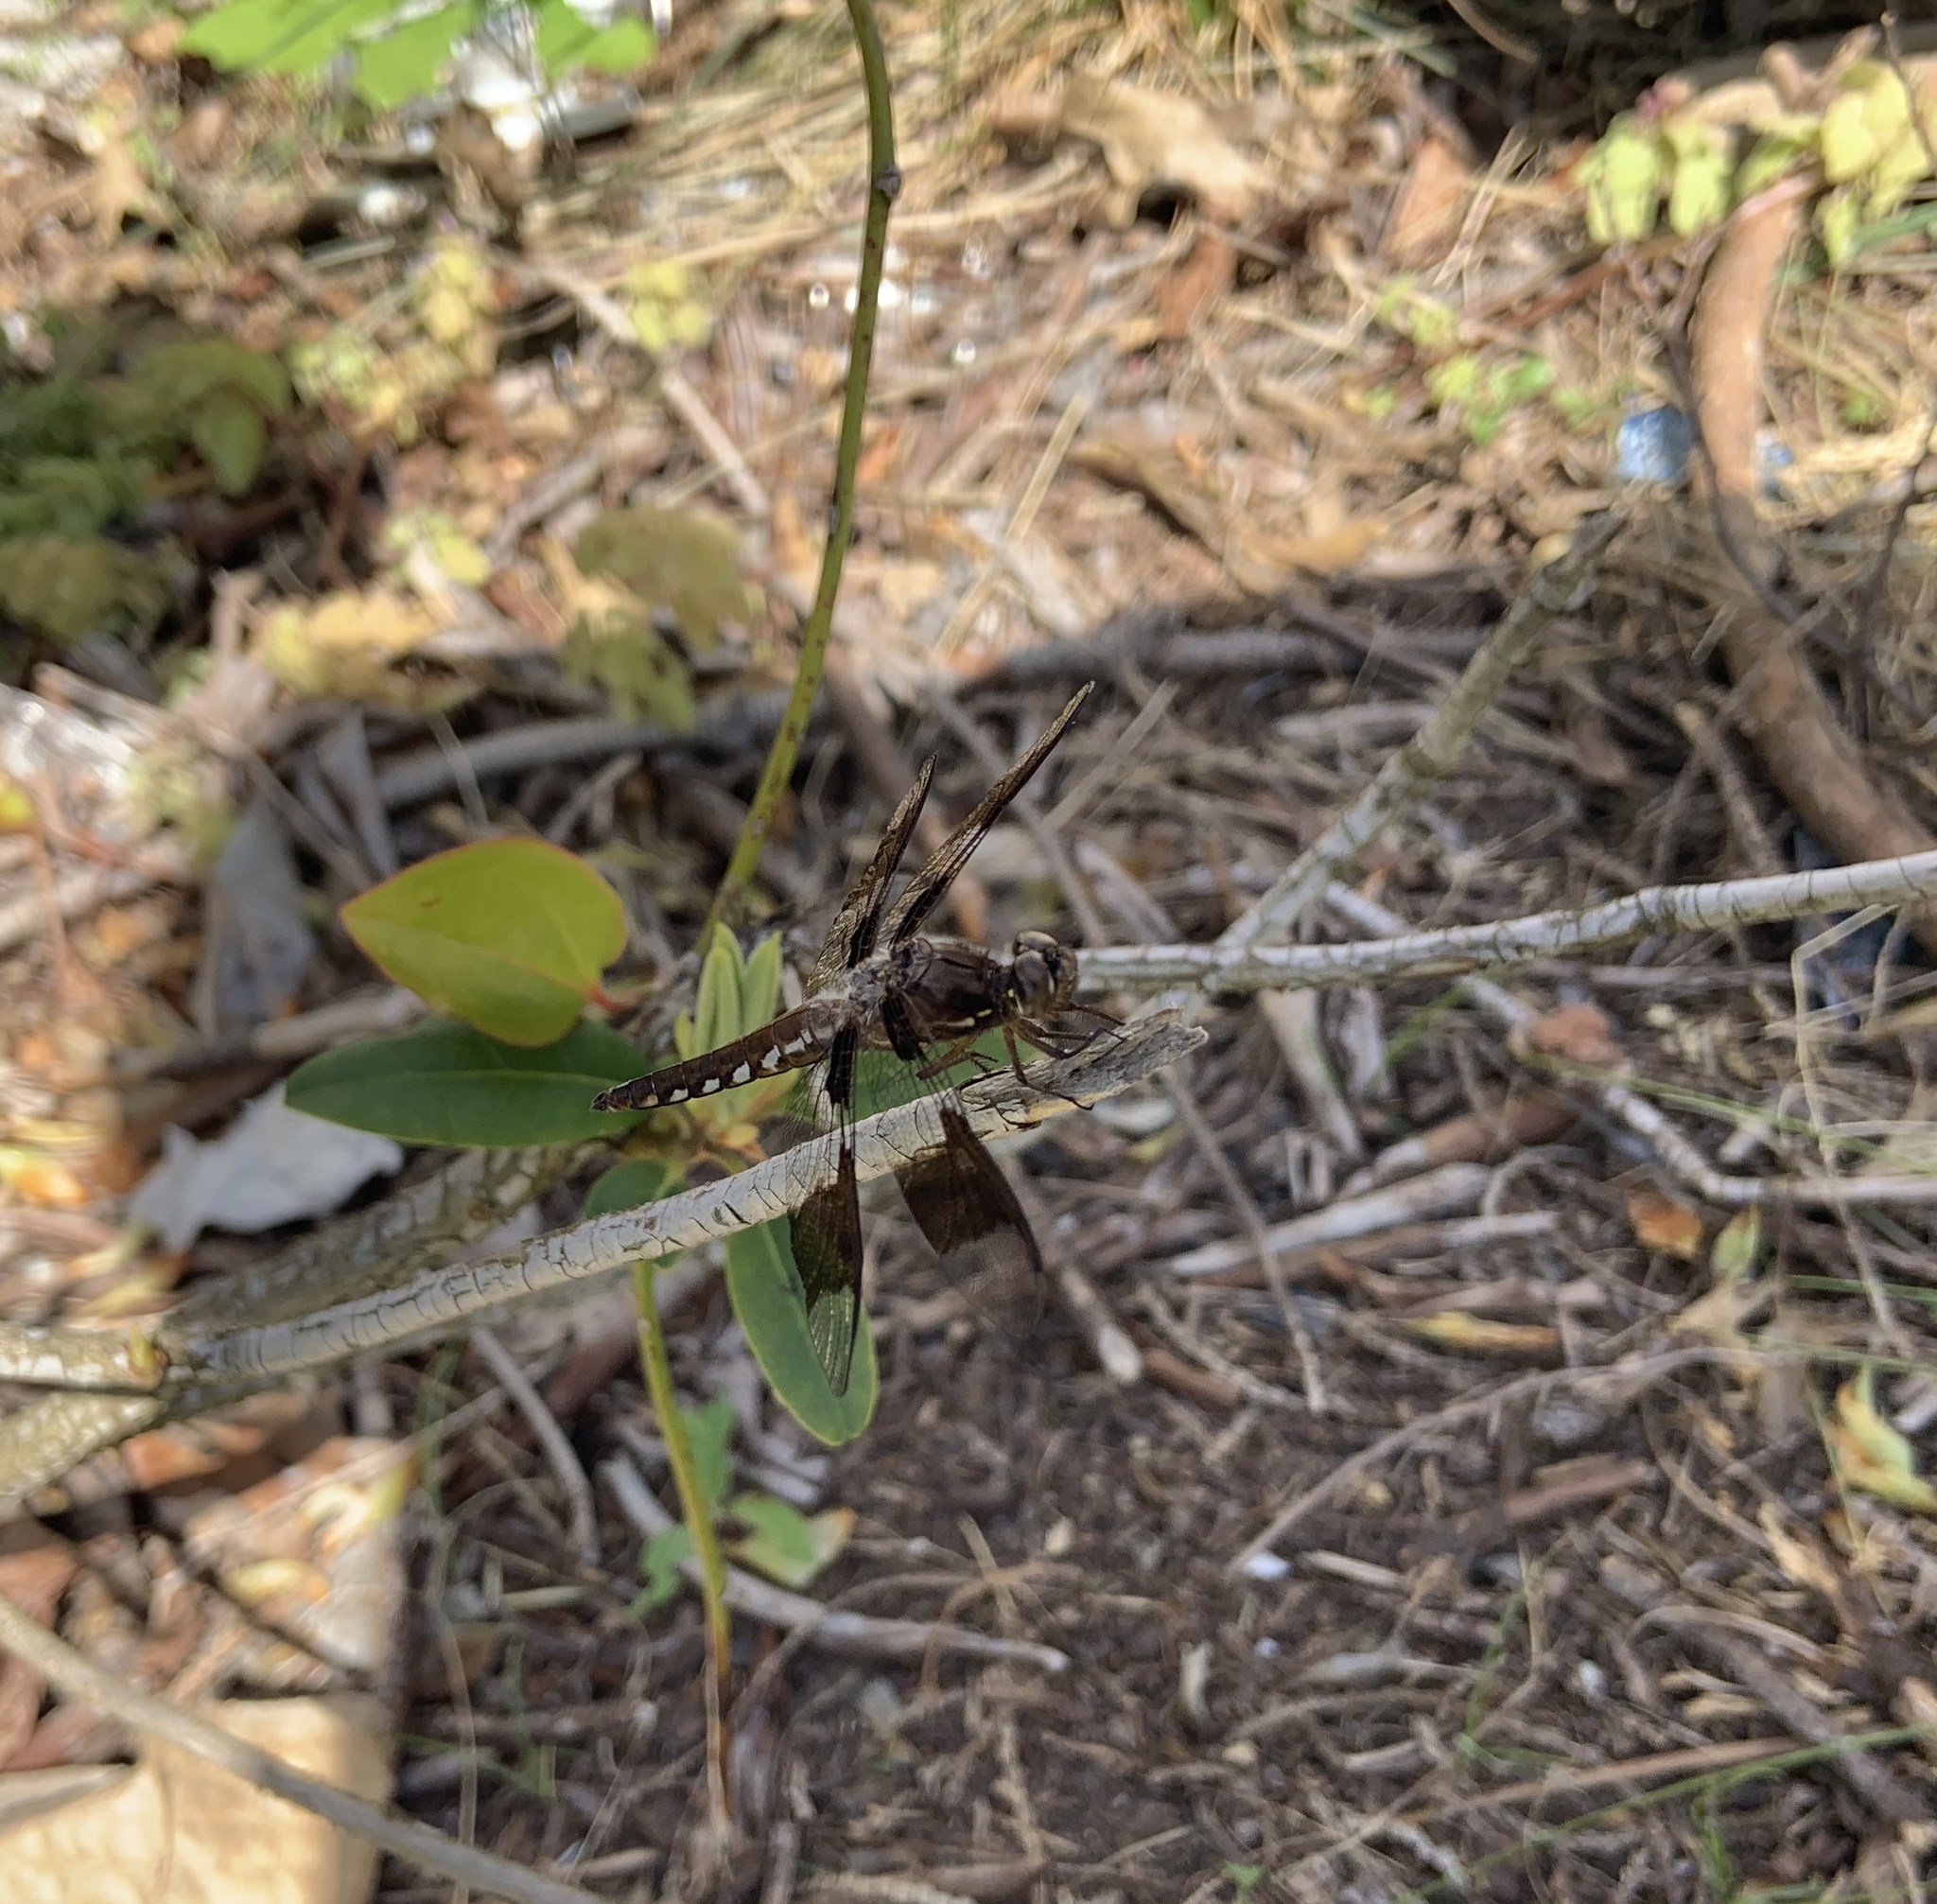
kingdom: Animalia
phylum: Arthropoda
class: Insecta
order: Odonata
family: Libellulidae
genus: Plathemis
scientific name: Plathemis lydia
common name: Common whitetail
